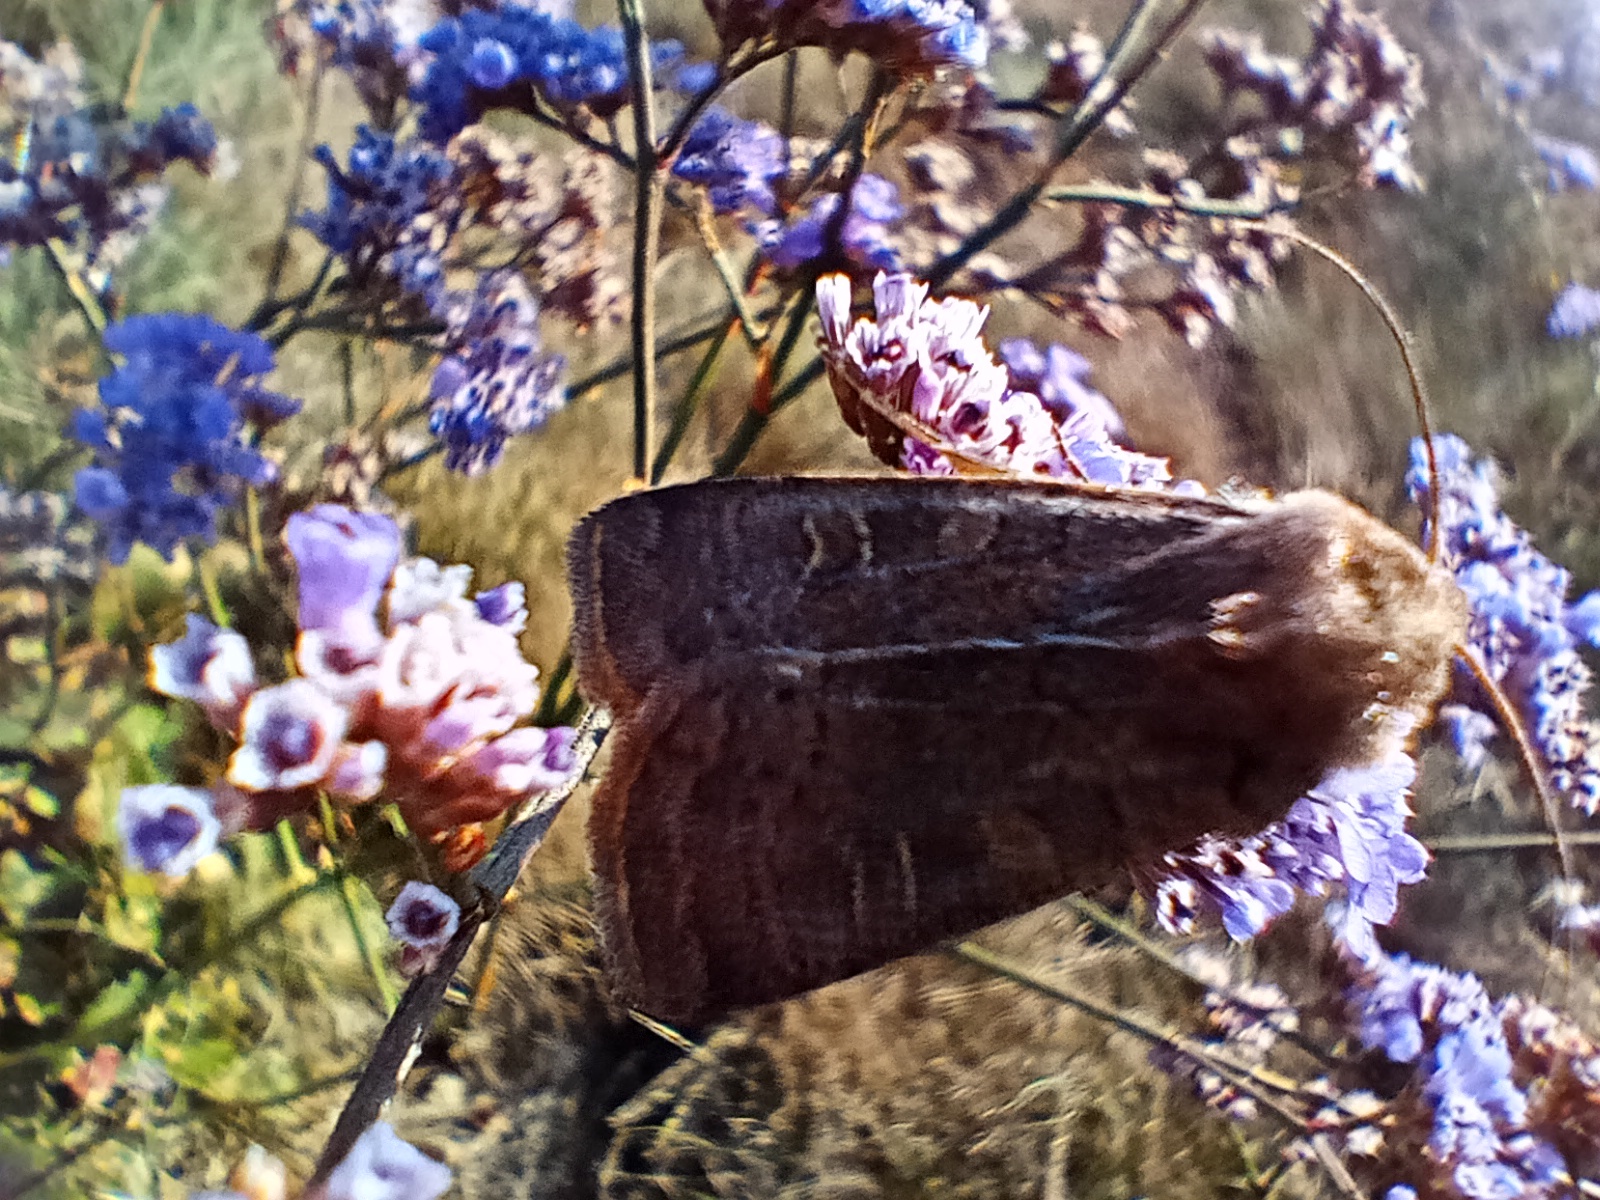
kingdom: Animalia
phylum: Arthropoda
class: Insecta
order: Lepidoptera
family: Noctuidae
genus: Xestia
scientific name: Xestia xanthographa
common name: Square-spot rustic
